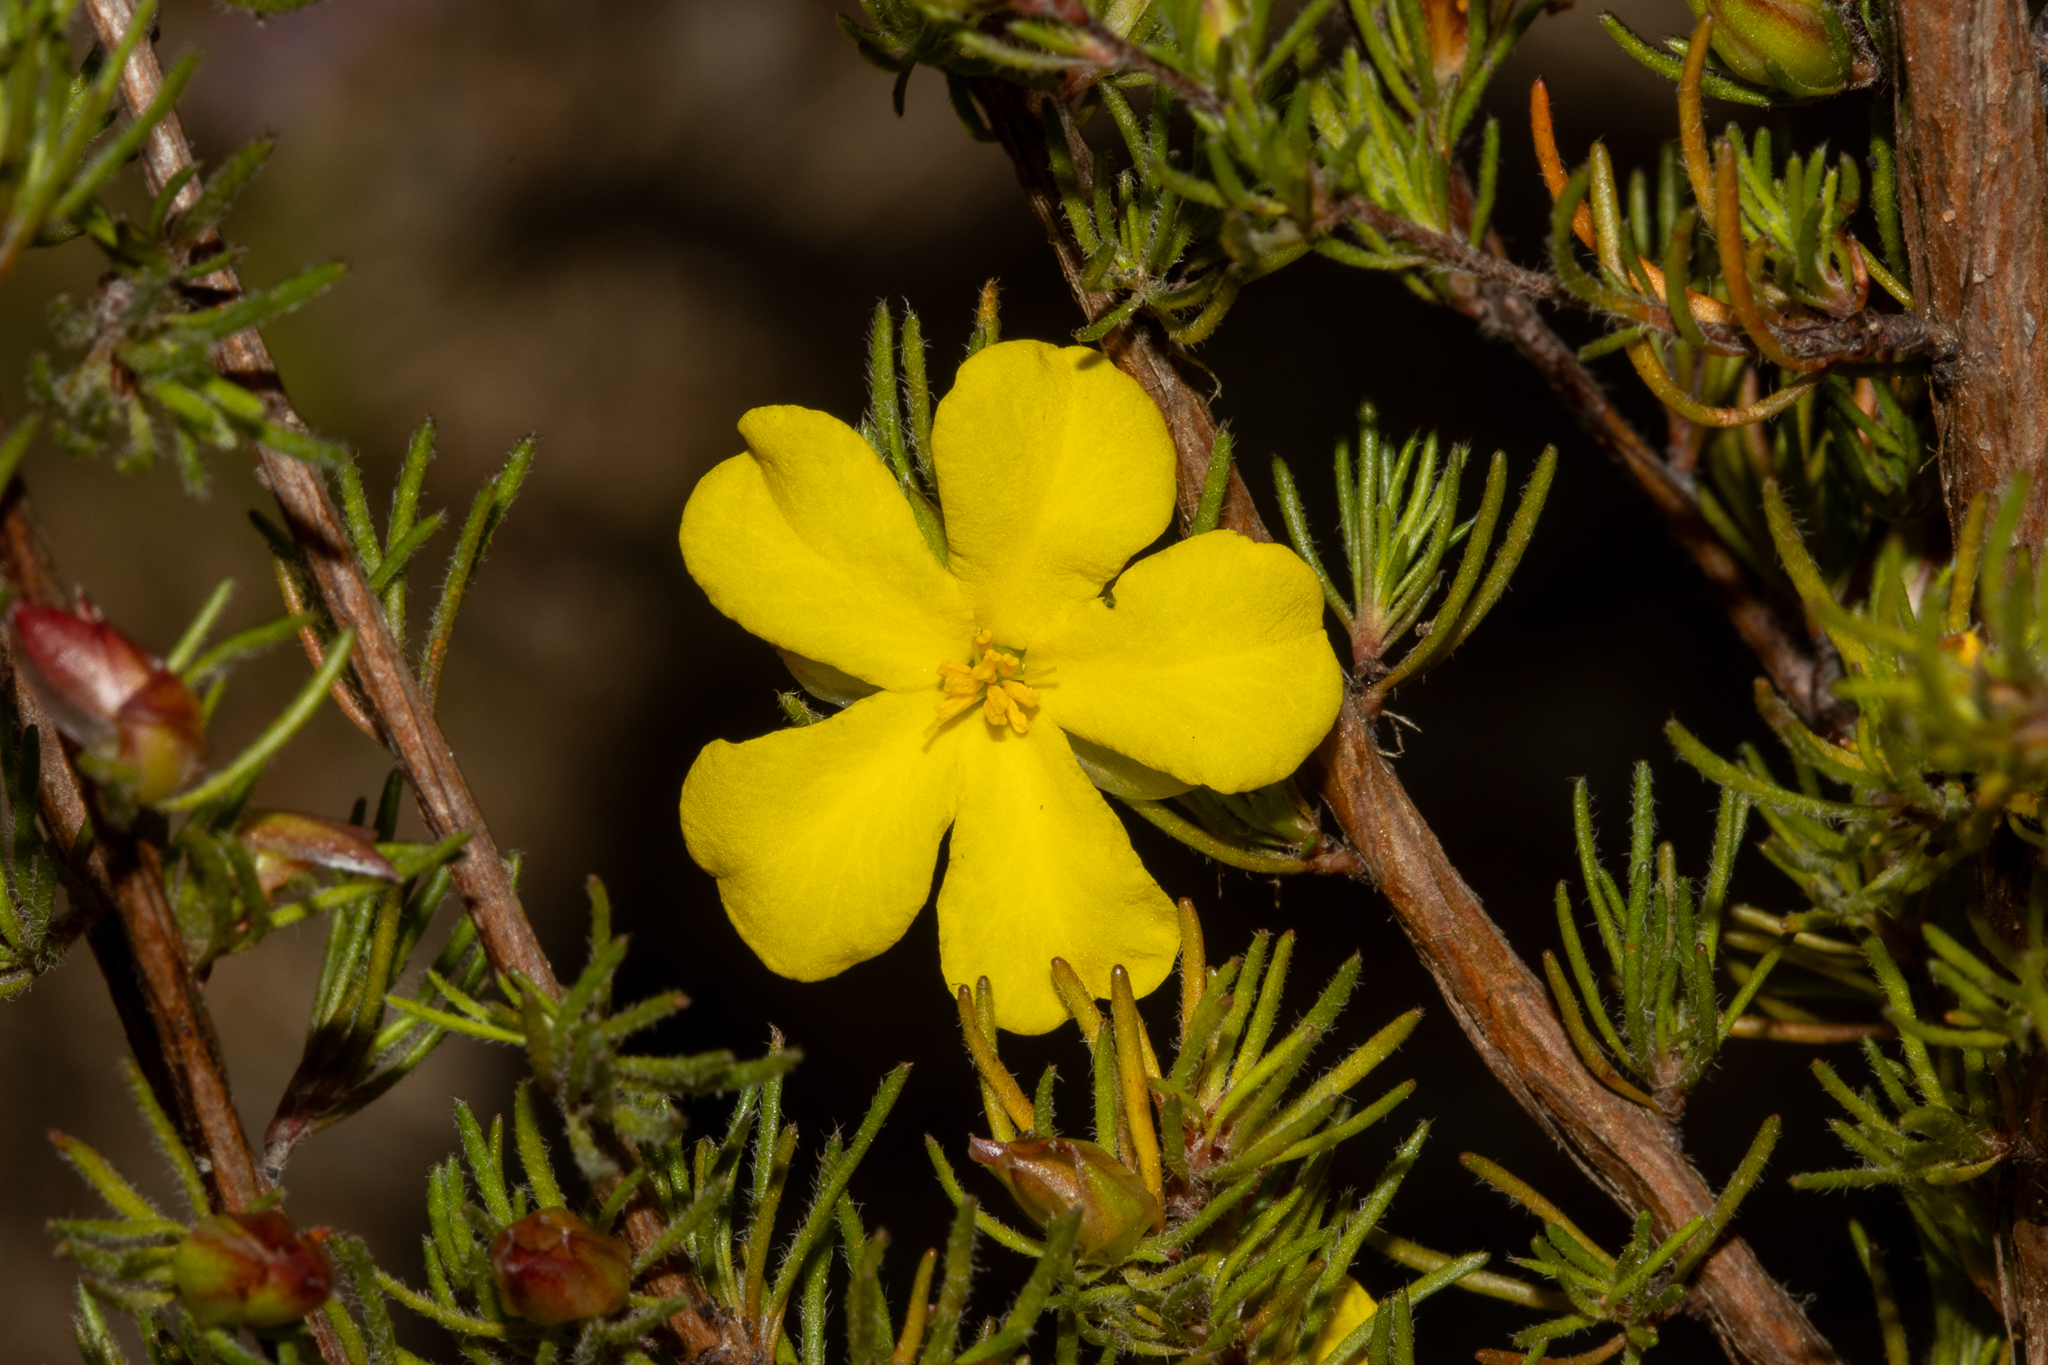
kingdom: Plantae
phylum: Tracheophyta
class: Magnoliopsida
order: Dilleniales
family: Dilleniaceae
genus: Hibbertia
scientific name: Hibbertia fasciculata
